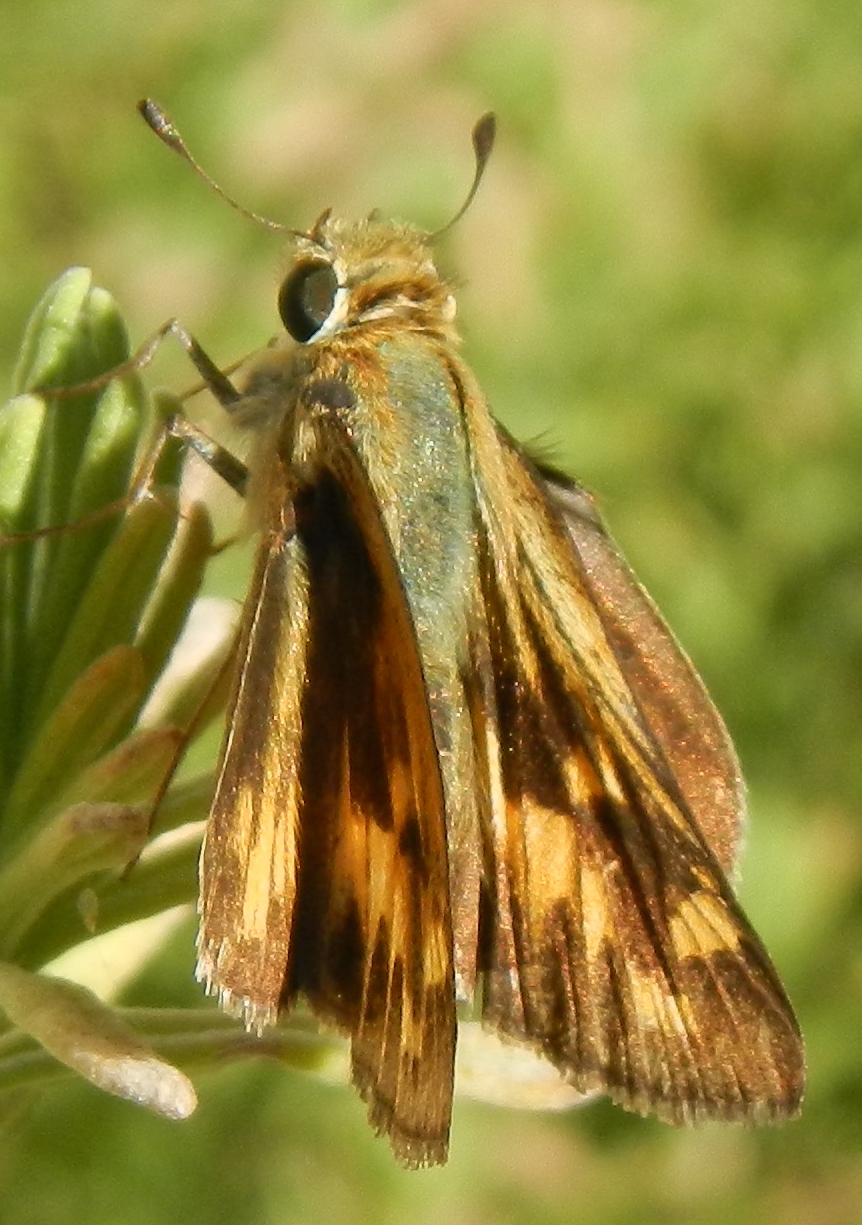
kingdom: Animalia
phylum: Arthropoda
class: Insecta
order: Lepidoptera
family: Hesperiidae
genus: Hylephila
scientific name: Hylephila phyleus
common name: Fiery skipper
